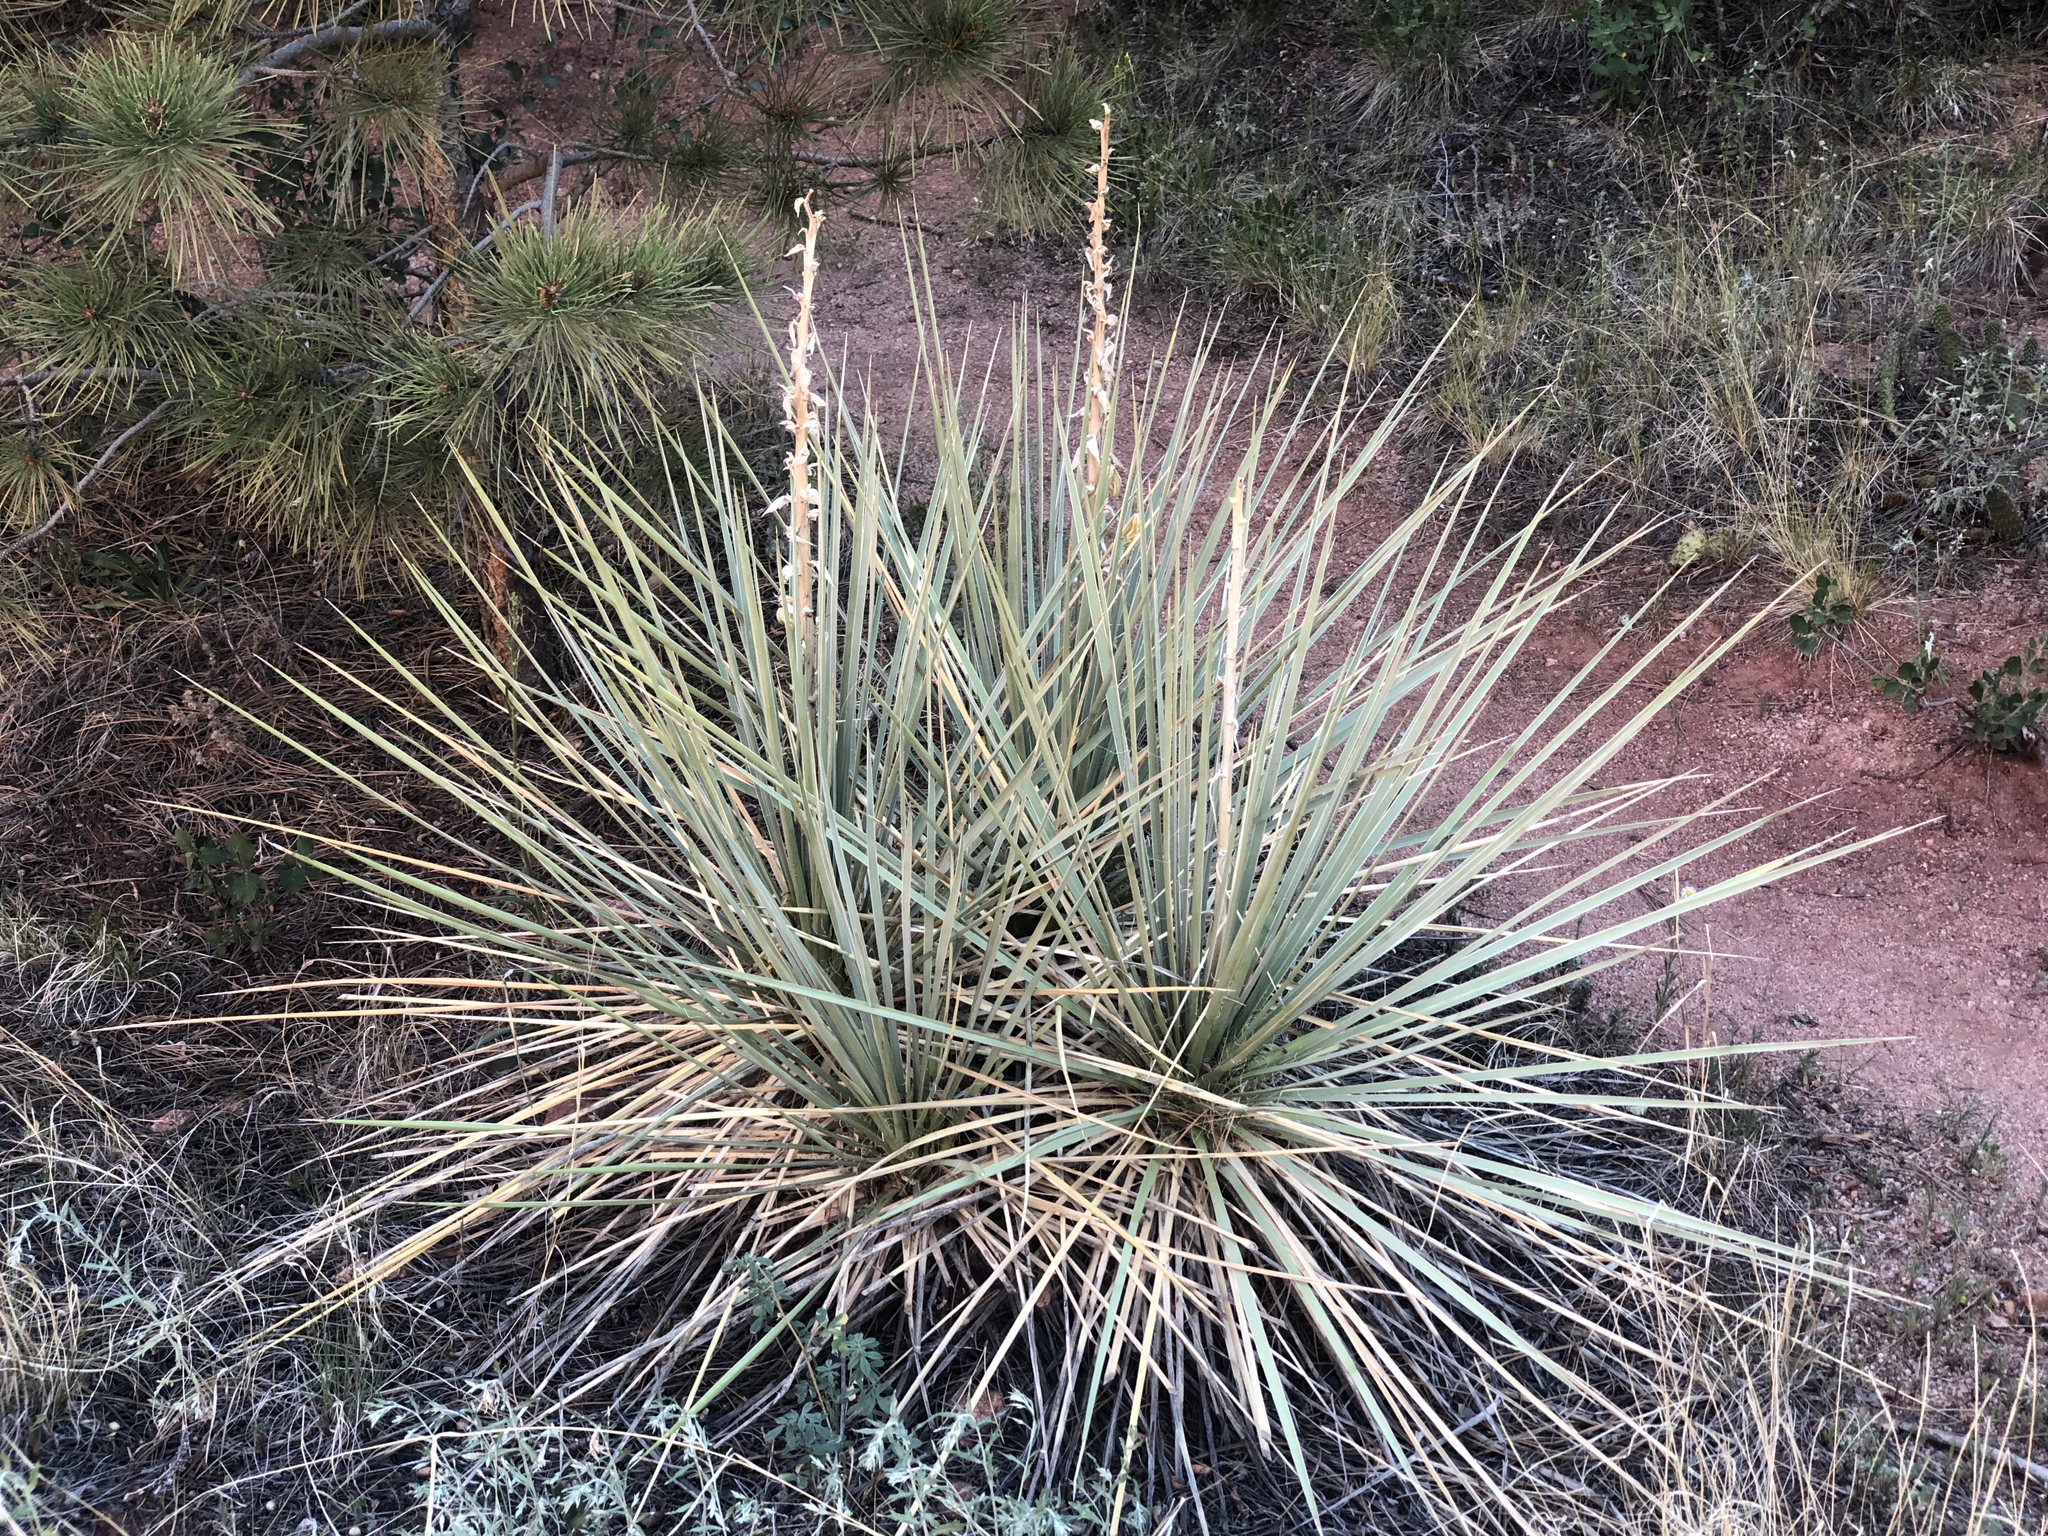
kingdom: Plantae
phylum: Tracheophyta
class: Liliopsida
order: Asparagales
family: Asparagaceae
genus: Yucca
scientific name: Yucca glauca
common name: Great plains yucca
